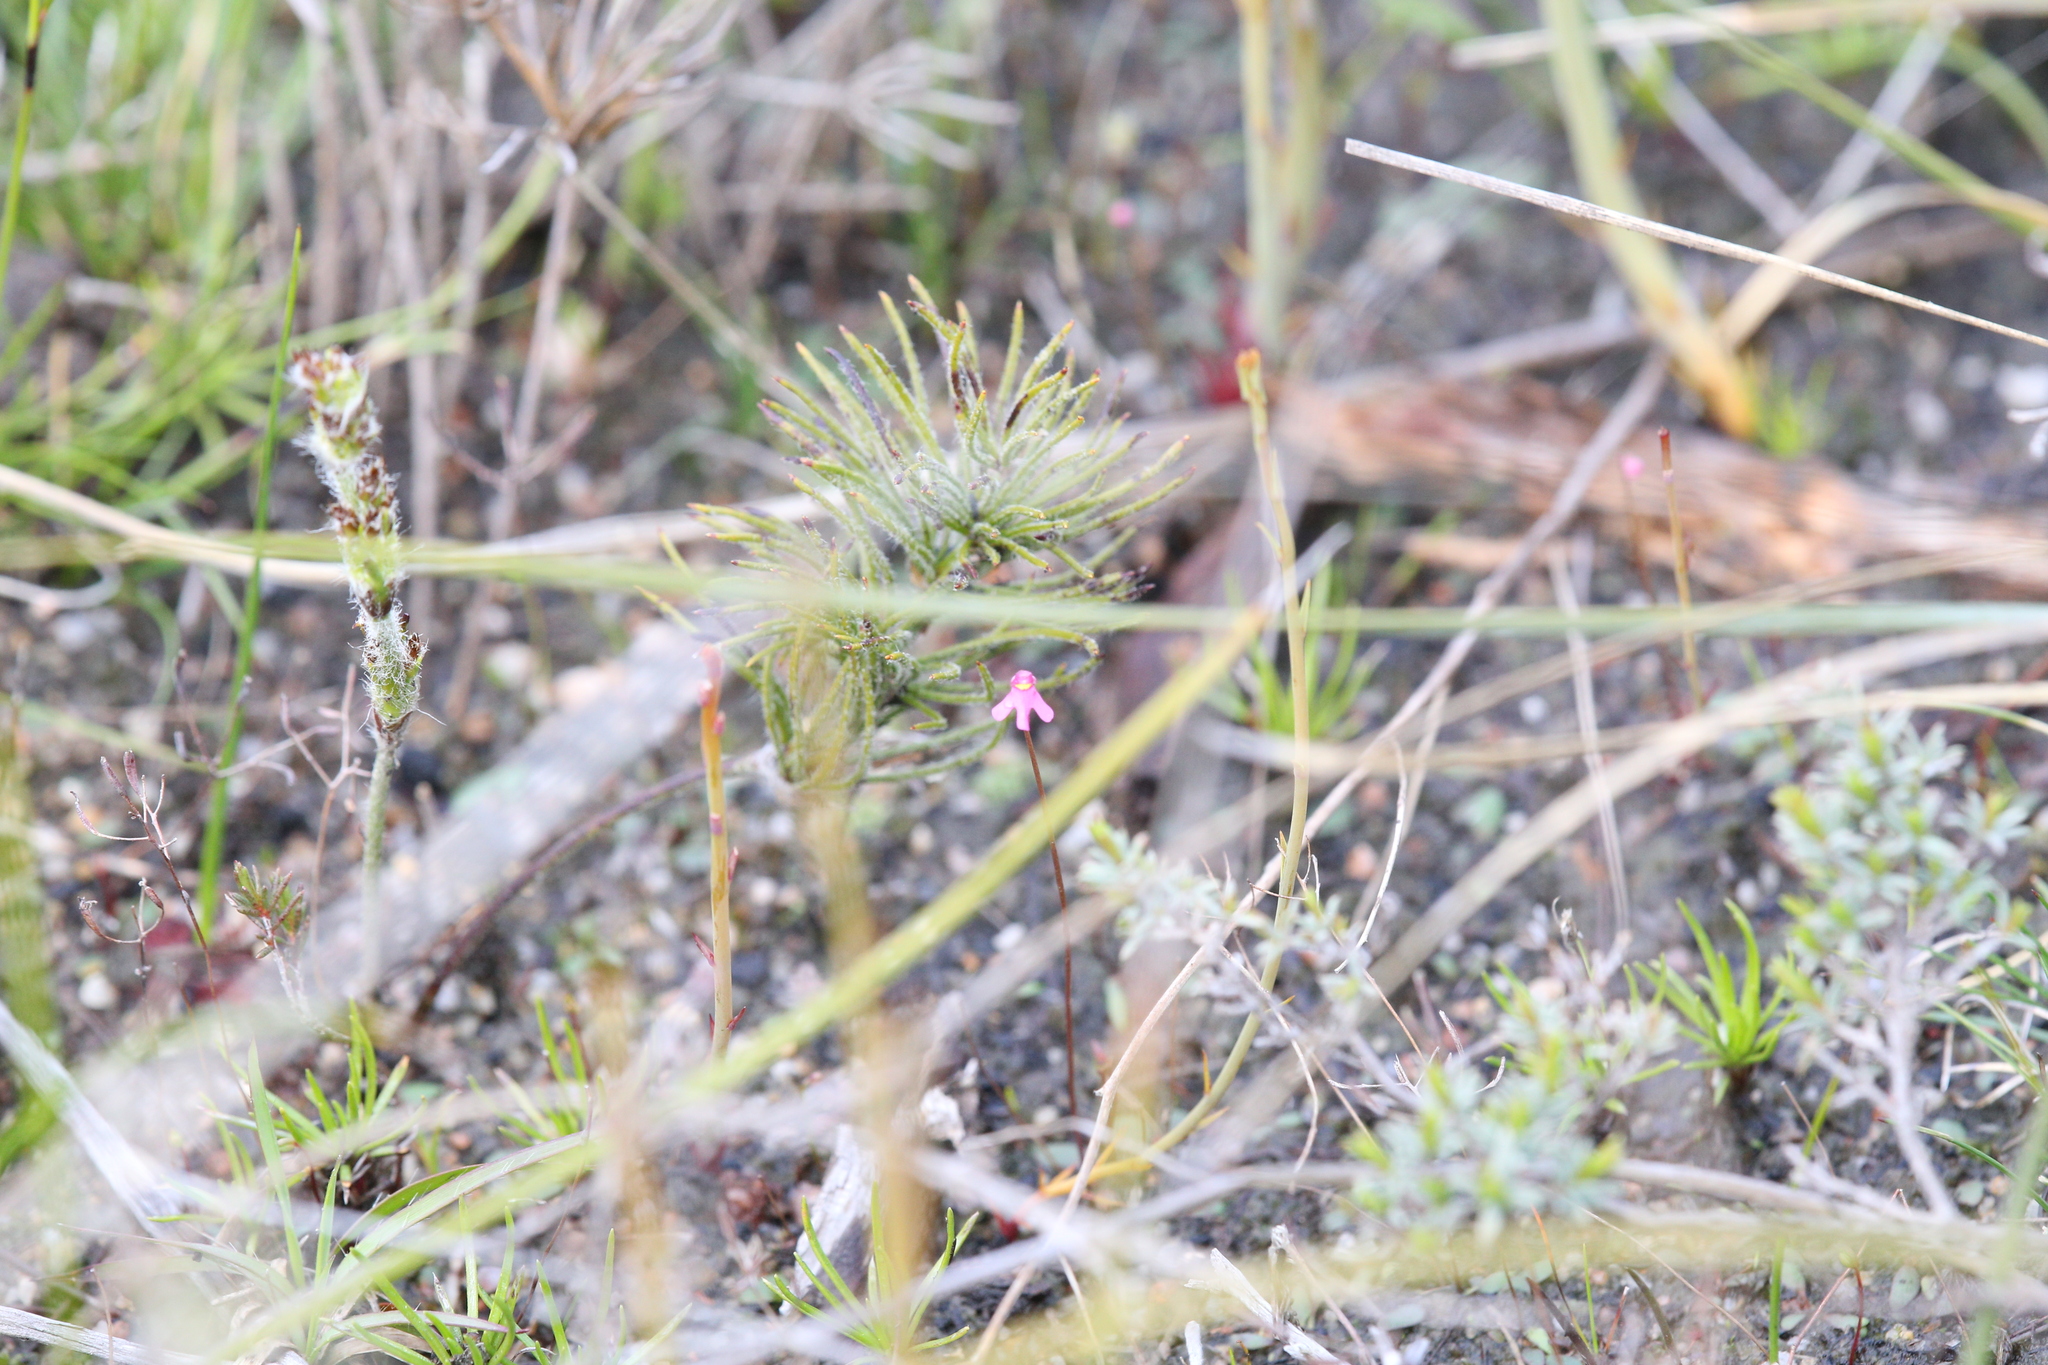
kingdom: Plantae
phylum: Tracheophyta
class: Magnoliopsida
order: Lamiales
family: Lentibulariaceae
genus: Utricularia
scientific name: Utricularia tenella
